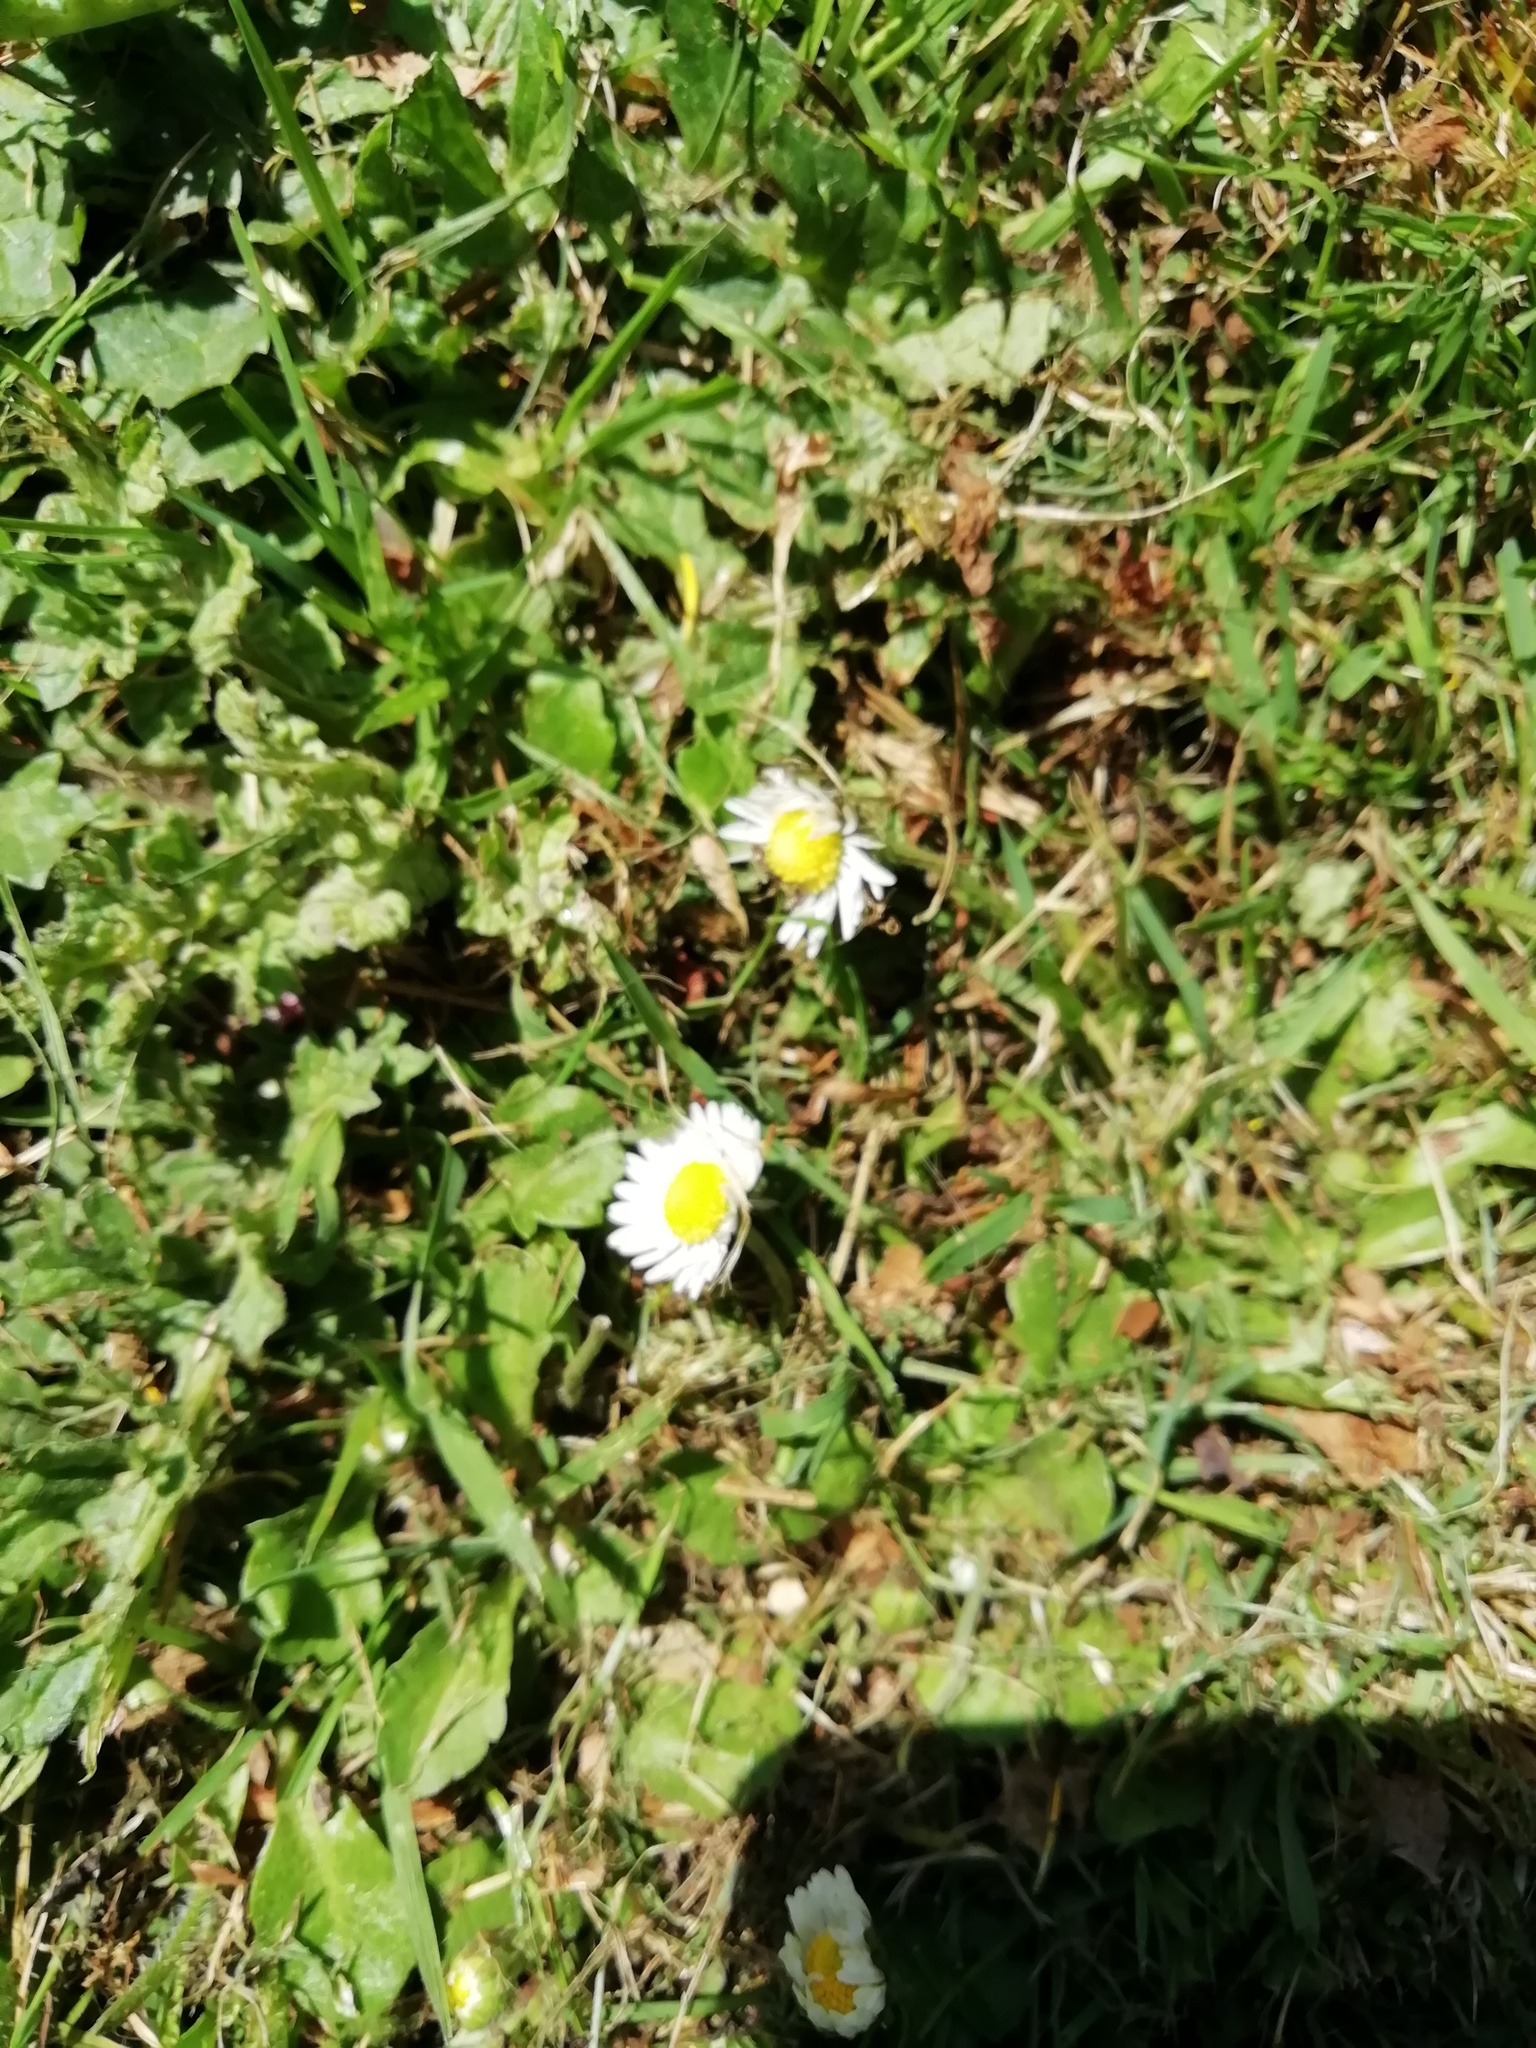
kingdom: Plantae
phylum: Tracheophyta
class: Magnoliopsida
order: Asterales
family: Asteraceae
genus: Bellis
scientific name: Bellis perennis
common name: Lawndaisy
